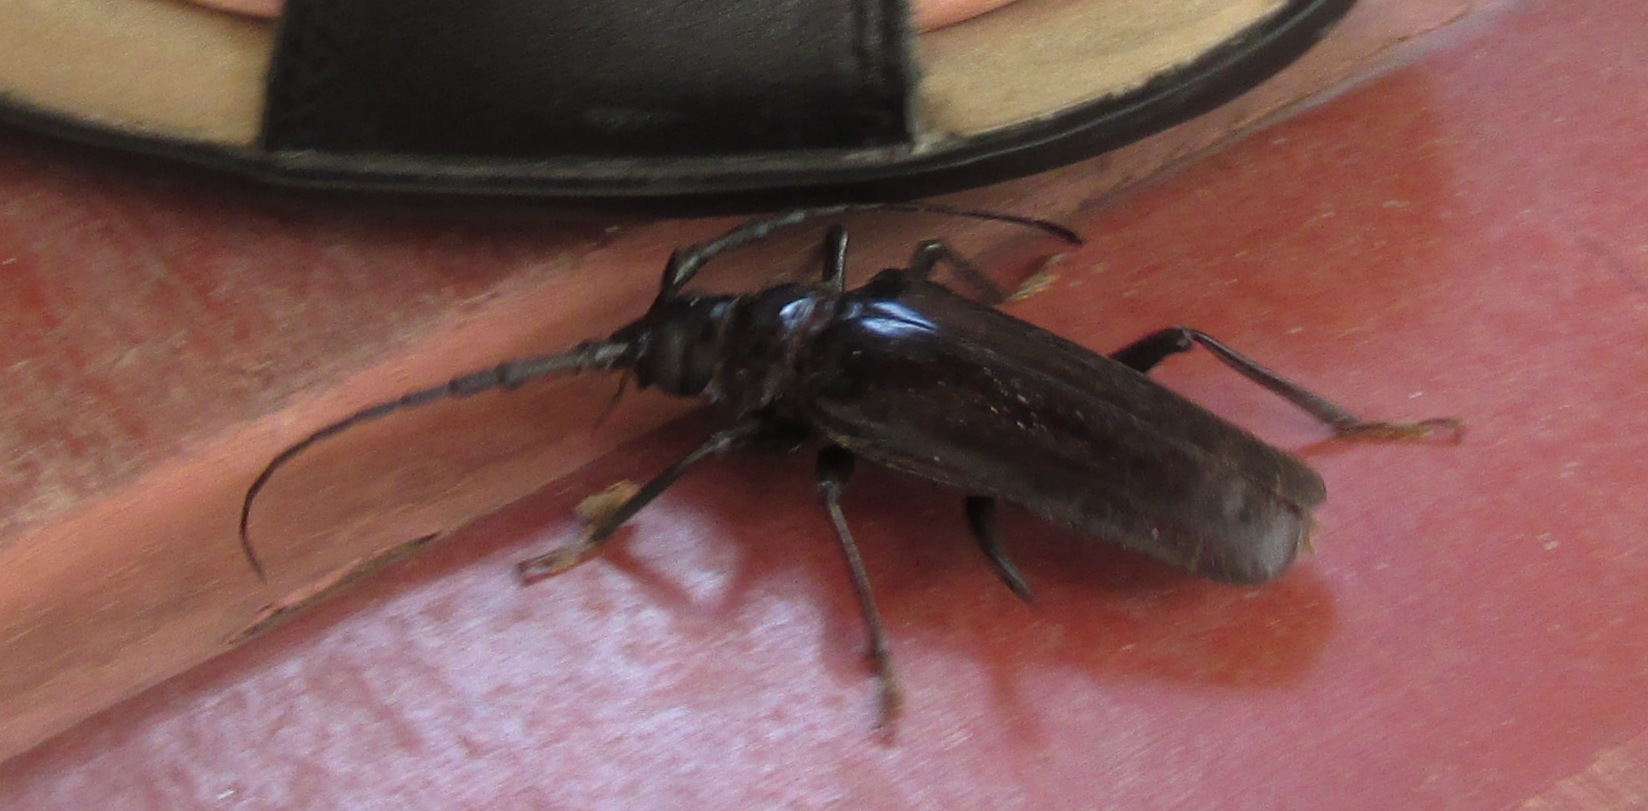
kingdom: Animalia
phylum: Arthropoda
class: Insecta
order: Coleoptera
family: Cerambycidae
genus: Derobrachus
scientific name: Derobrachus
